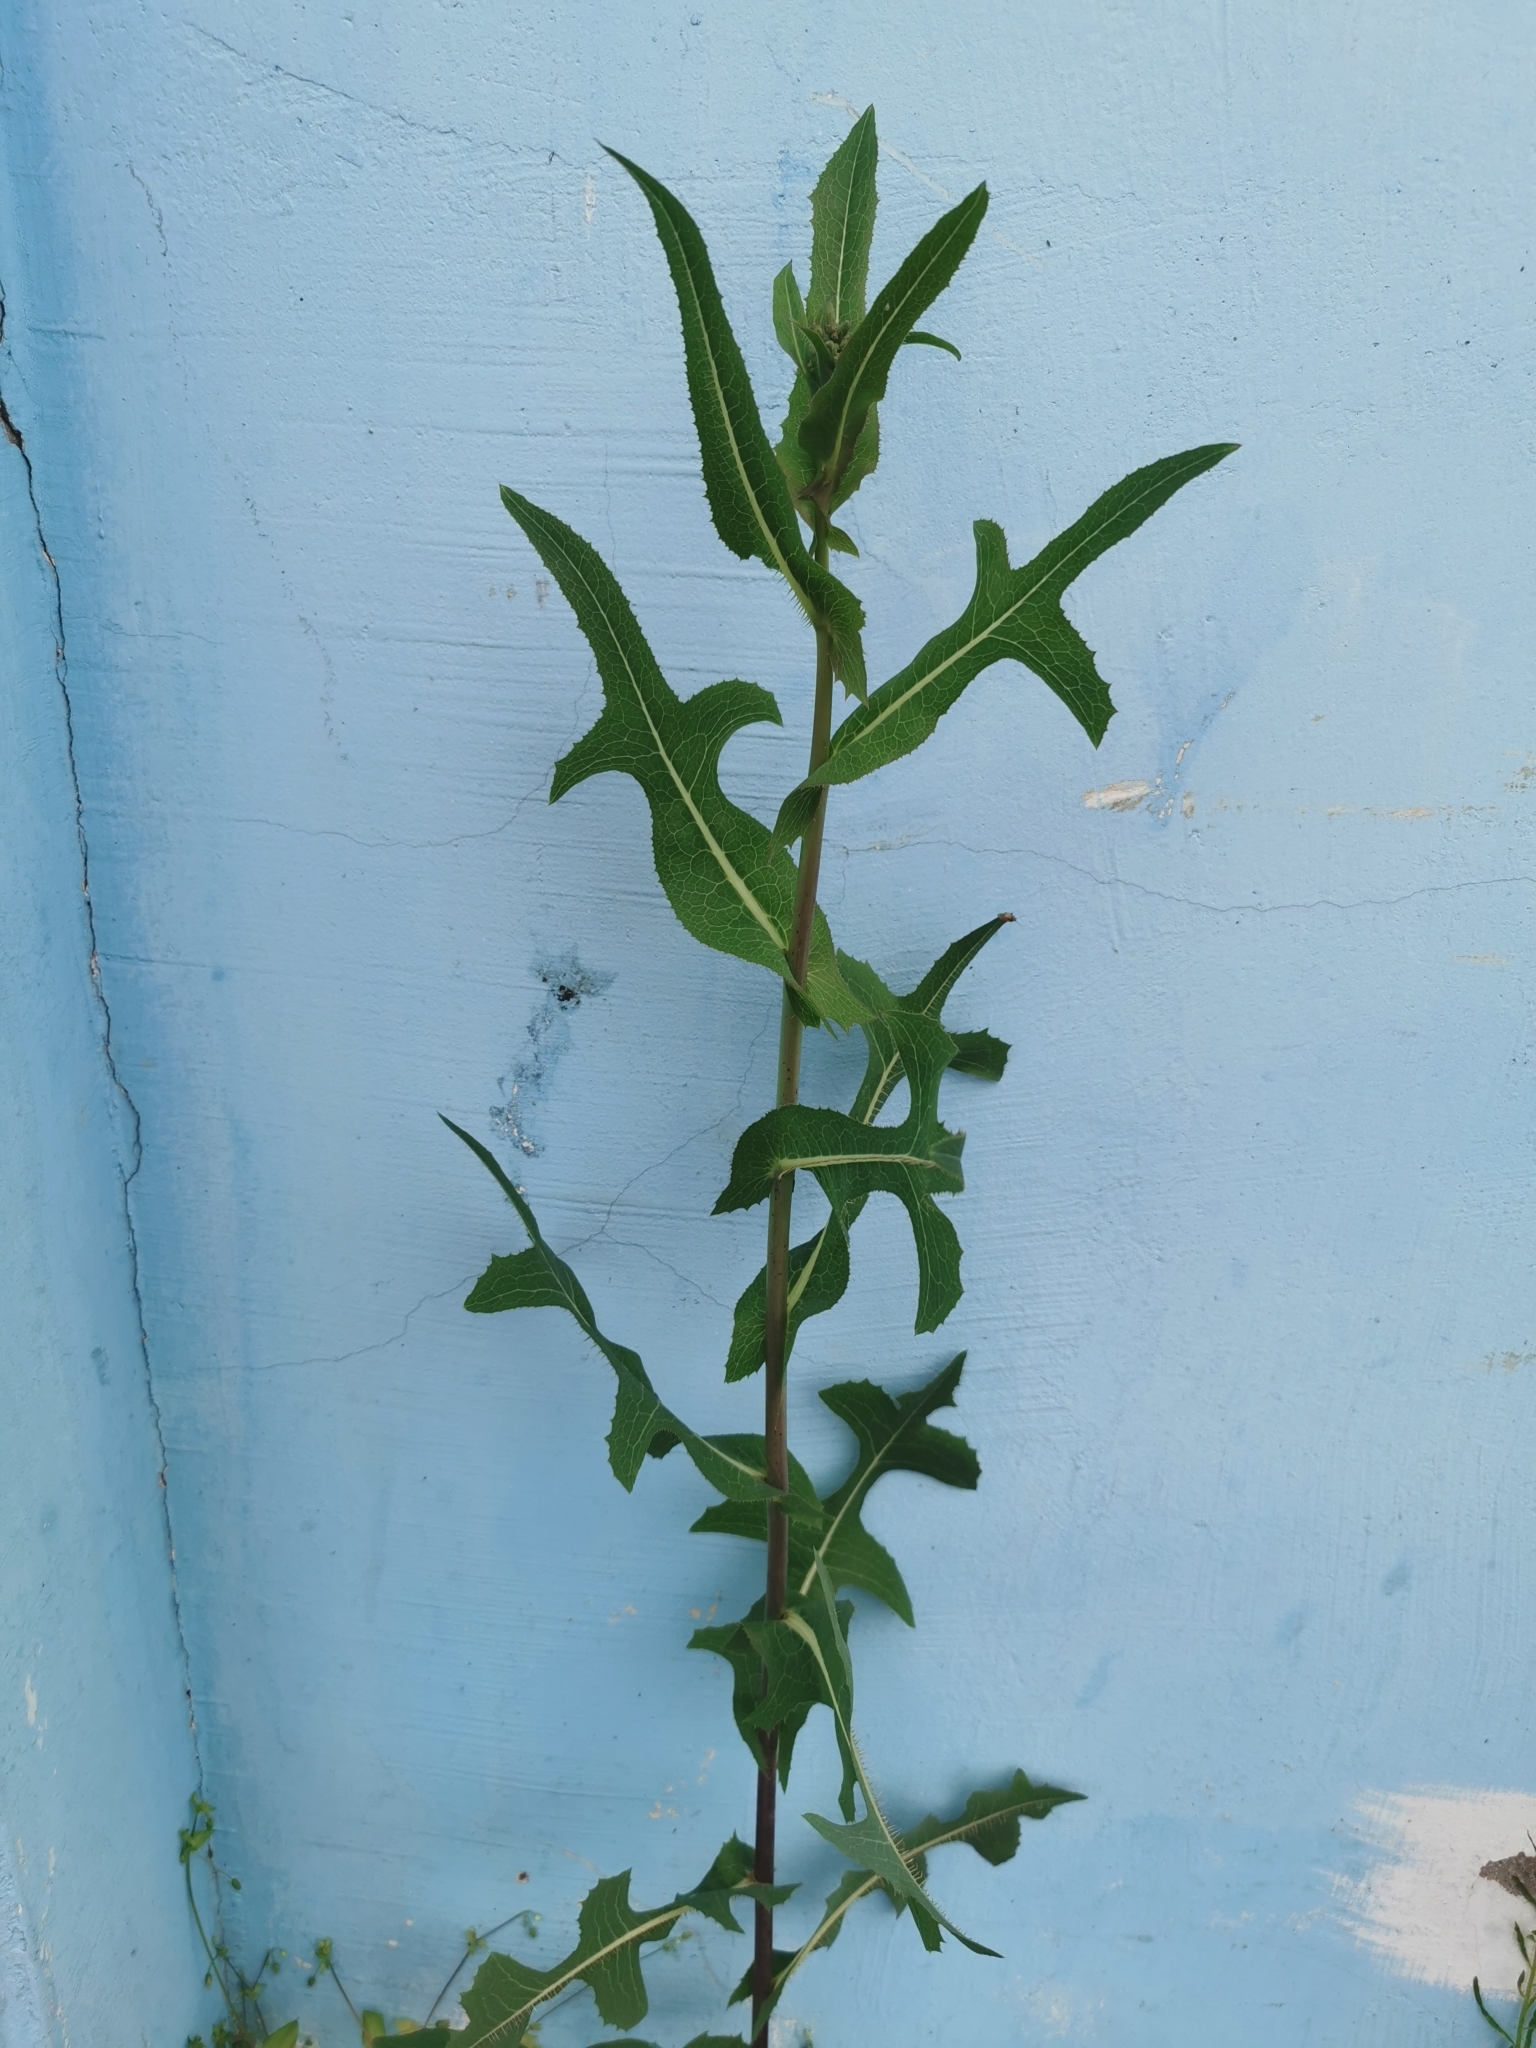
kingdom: Plantae
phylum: Tracheophyta
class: Magnoliopsida
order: Asterales
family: Asteraceae
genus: Lactuca
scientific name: Lactuca serriola
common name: Prickly lettuce
